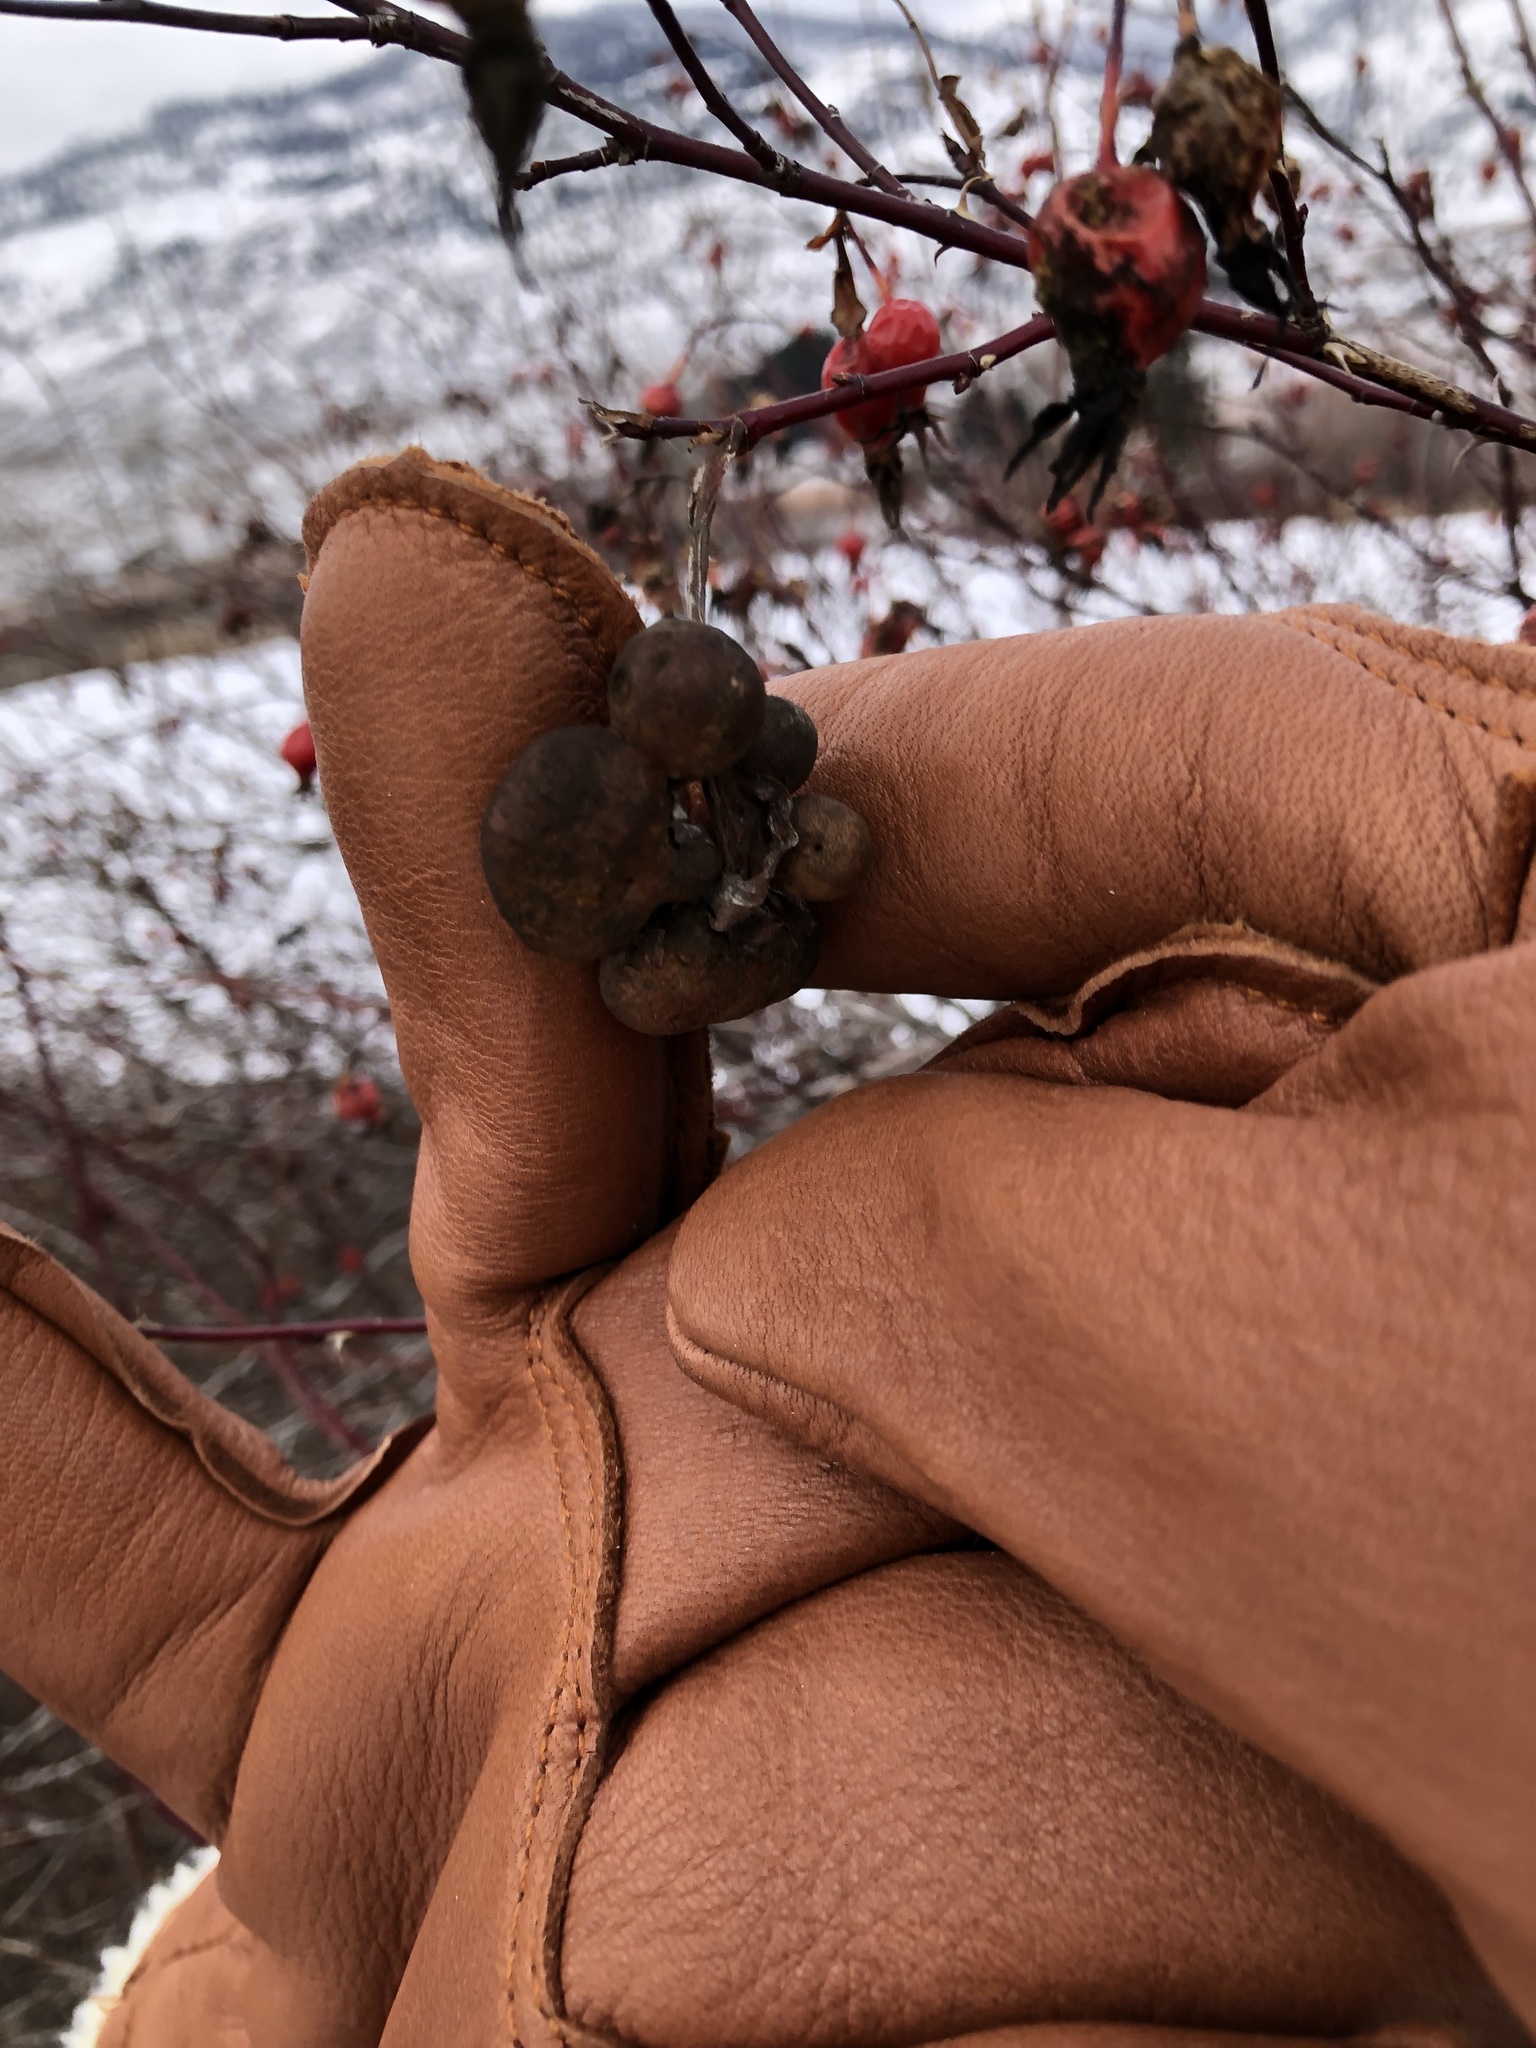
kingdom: Animalia
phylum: Arthropoda
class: Insecta
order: Hymenoptera
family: Cynipidae
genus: Diplolepis
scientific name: Diplolepis variabilis
